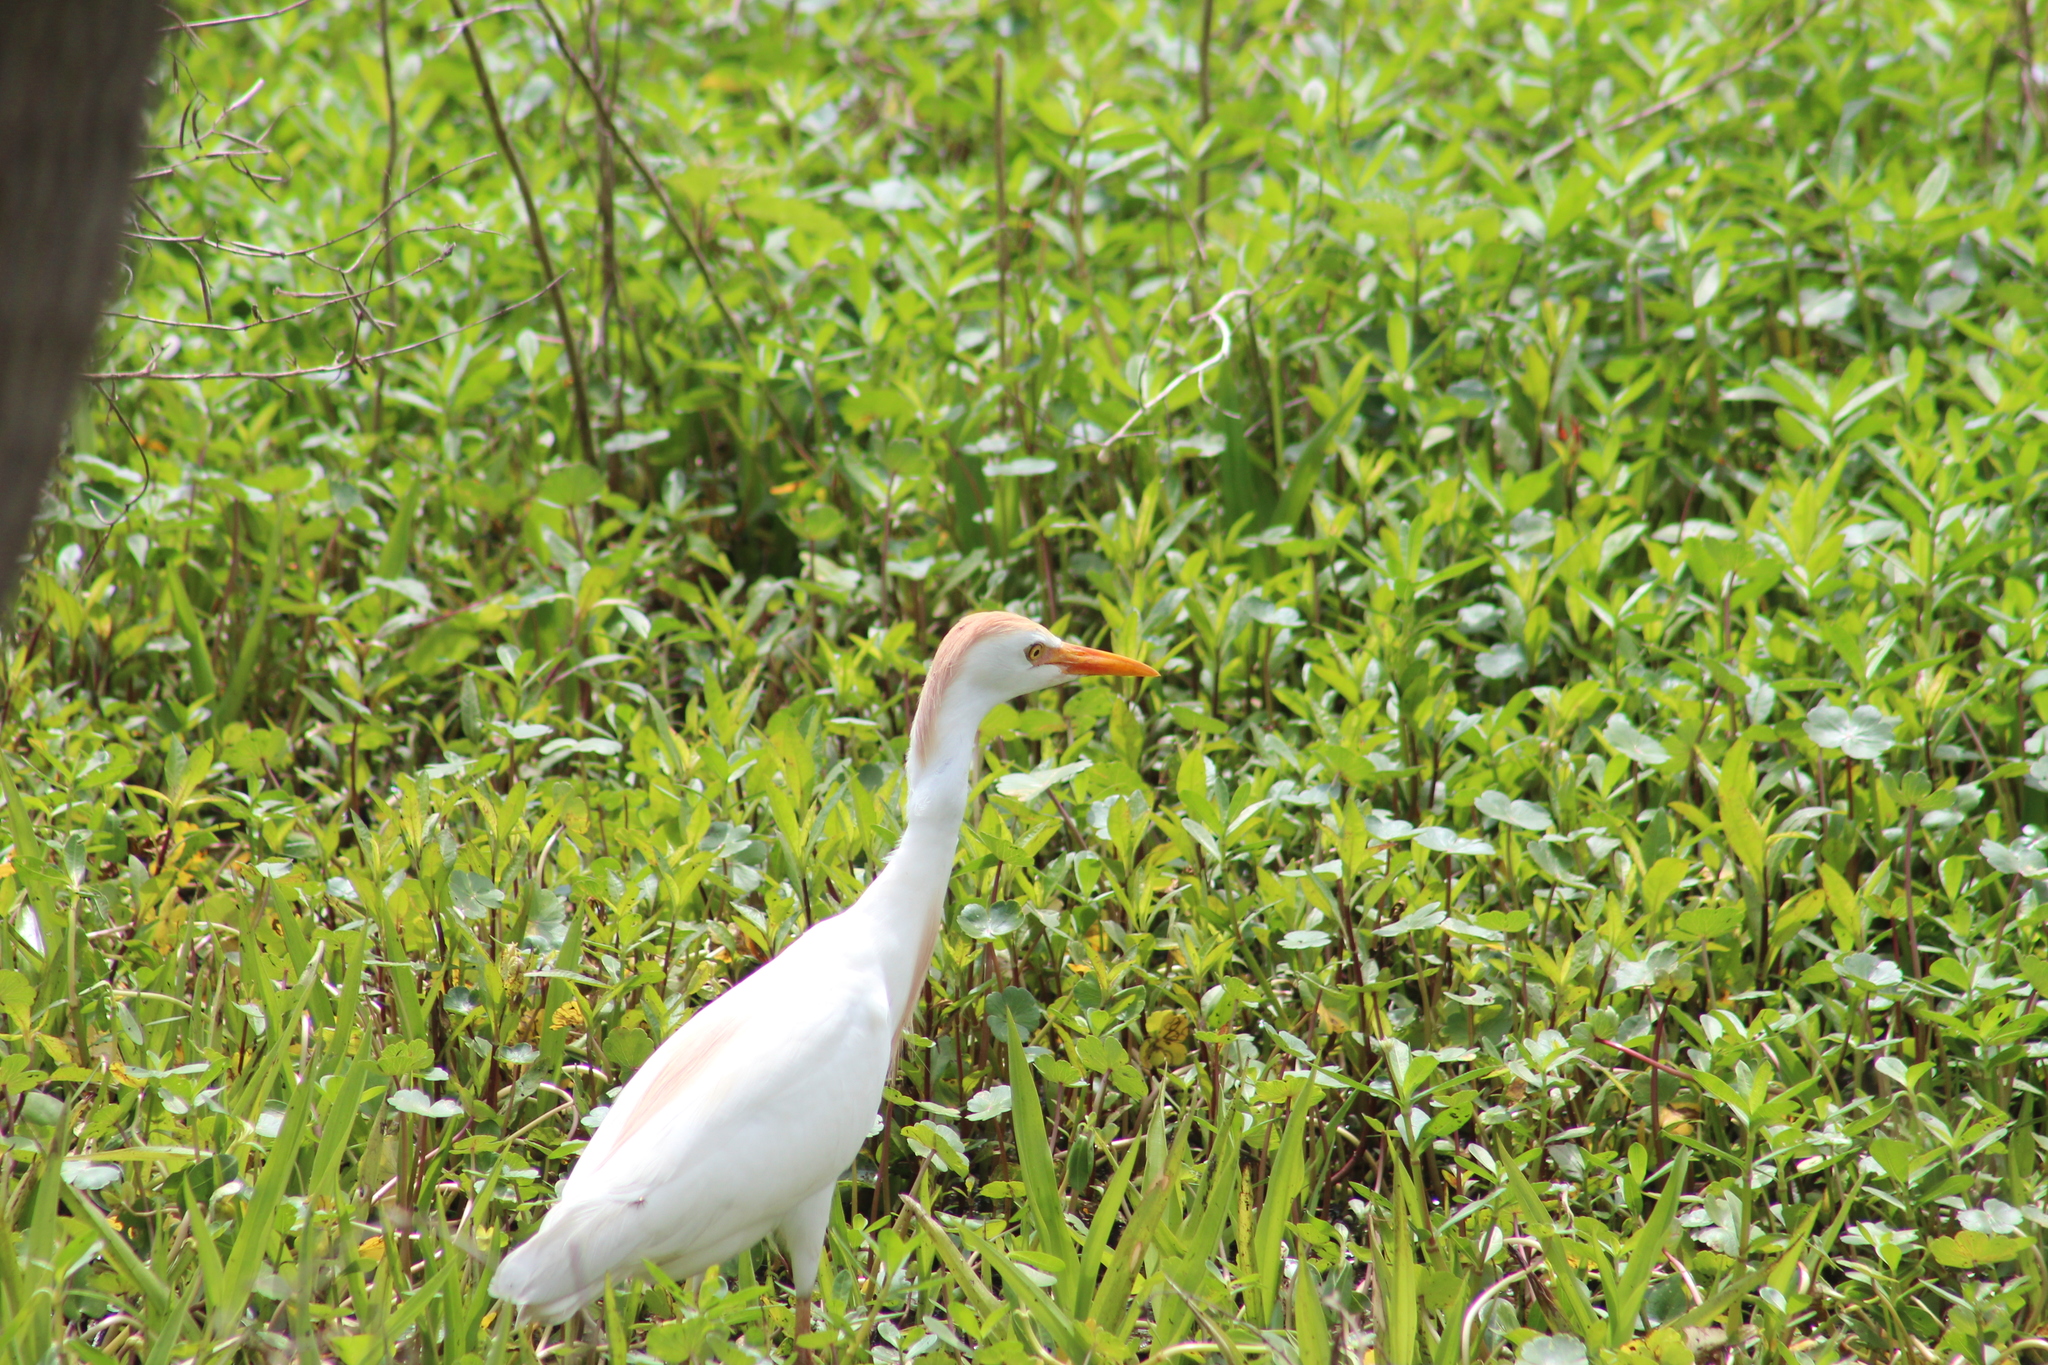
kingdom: Animalia
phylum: Chordata
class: Aves
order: Pelecaniformes
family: Ardeidae
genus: Bubulcus
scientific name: Bubulcus ibis
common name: Cattle egret
